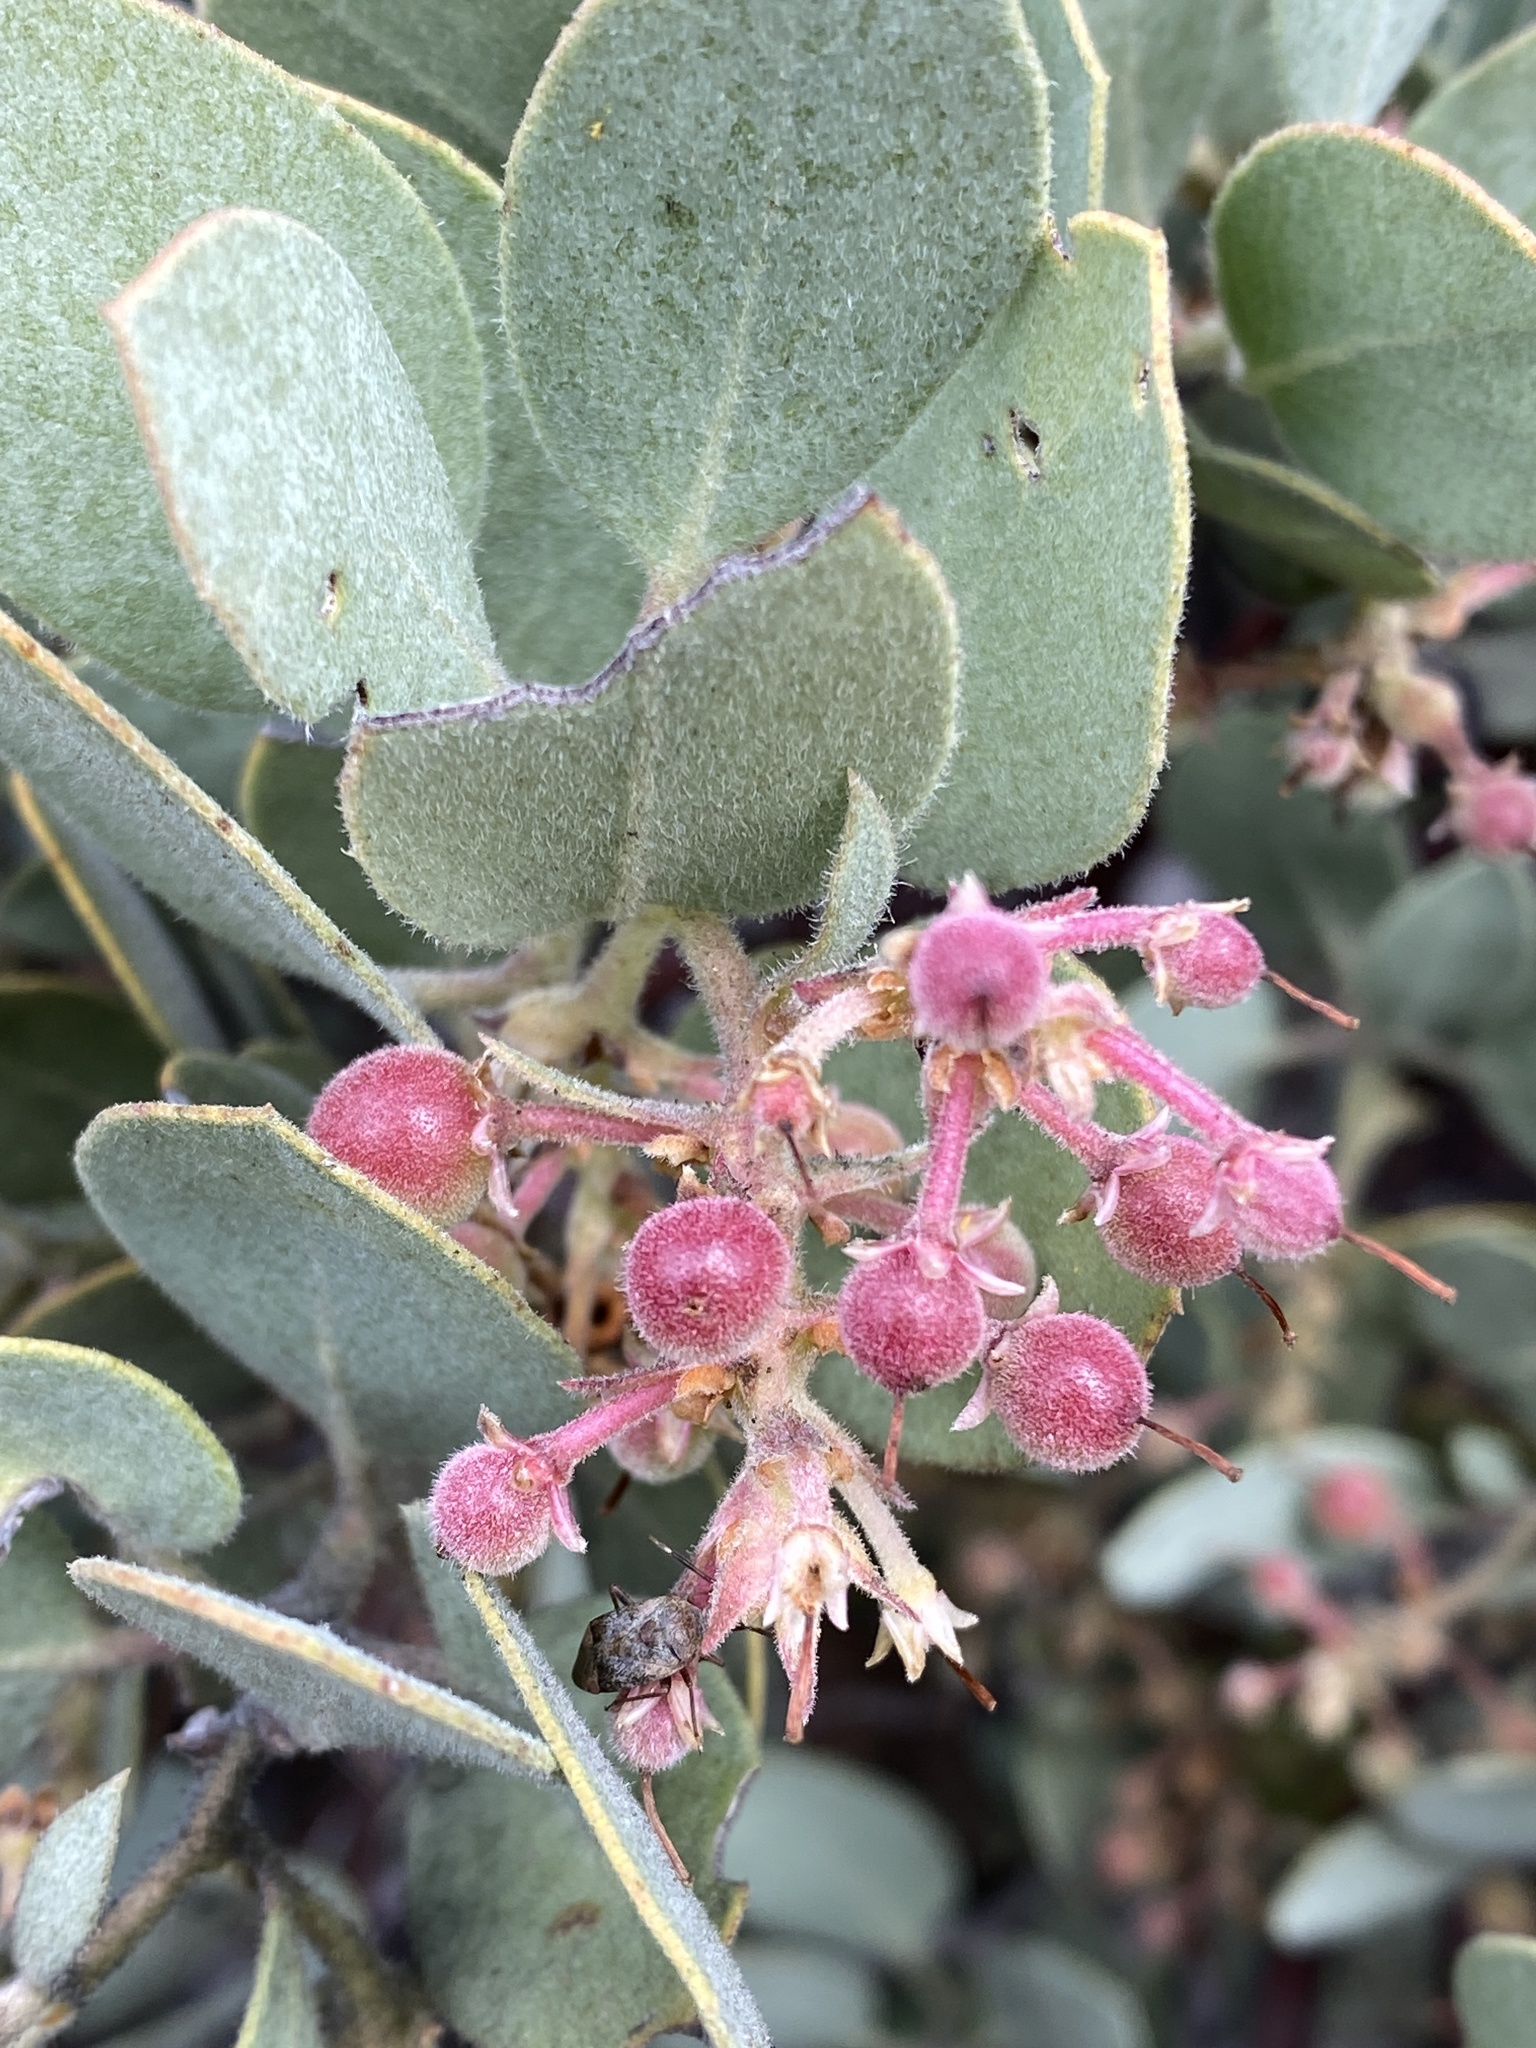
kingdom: Plantae
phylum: Tracheophyta
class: Magnoliopsida
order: Ericales
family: Ericaceae
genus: Arctostaphylos
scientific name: Arctostaphylos glandulosa
